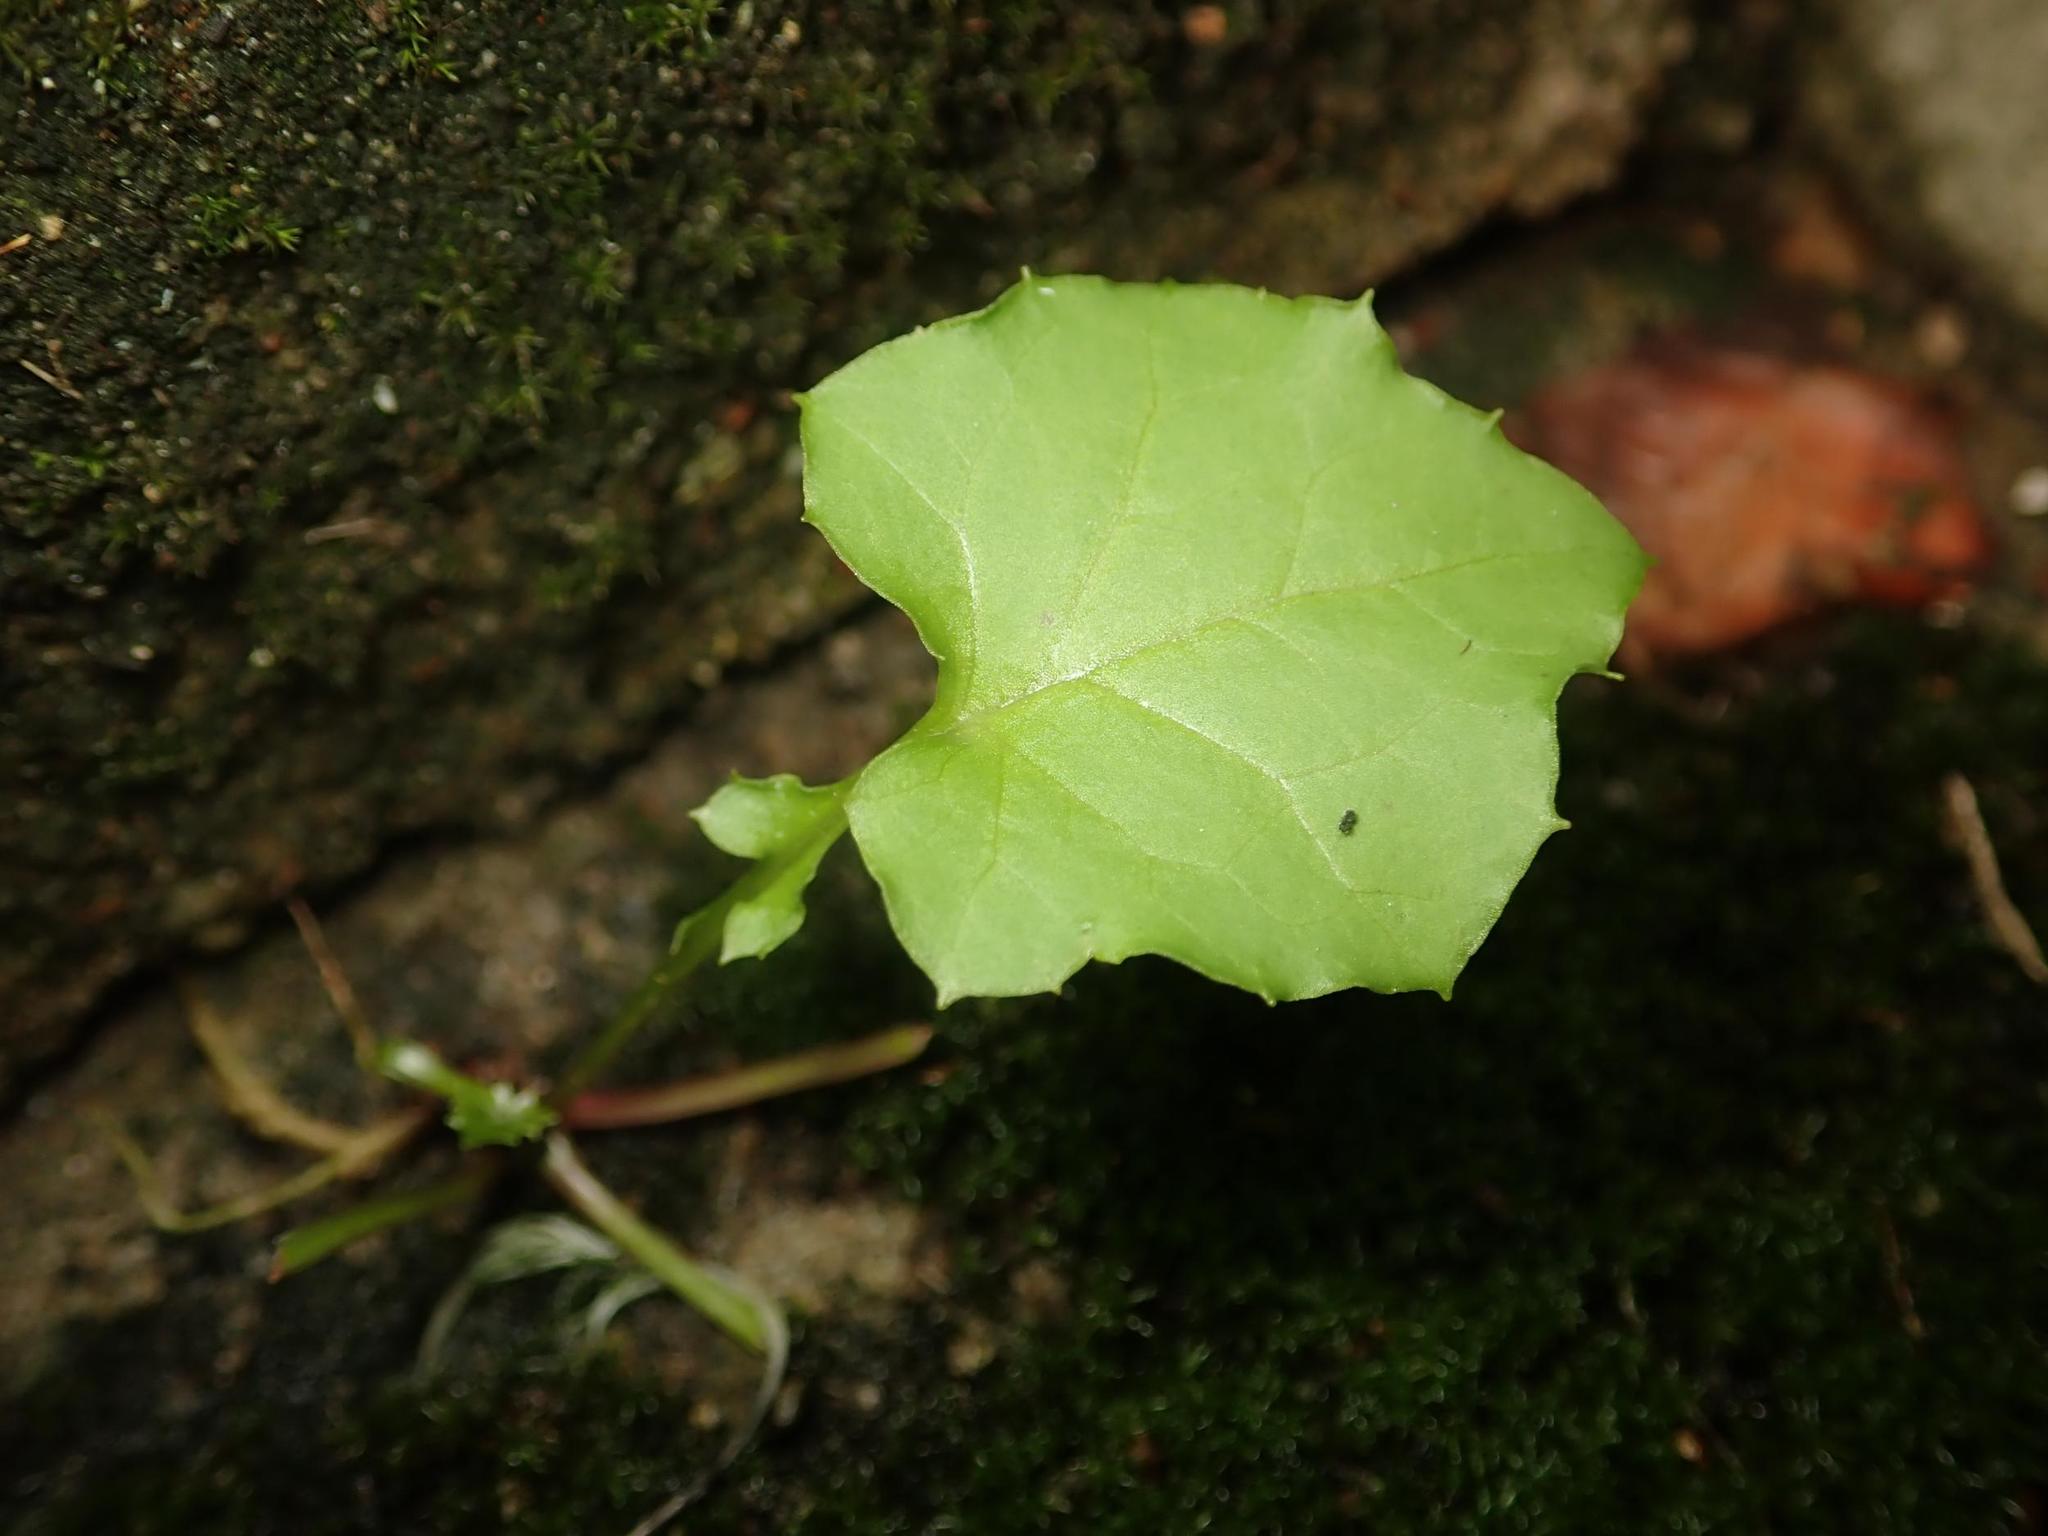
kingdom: Plantae
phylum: Tracheophyta
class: Magnoliopsida
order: Asterales
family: Asteraceae
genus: Mycelis
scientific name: Mycelis muralis
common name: Wall lettuce
